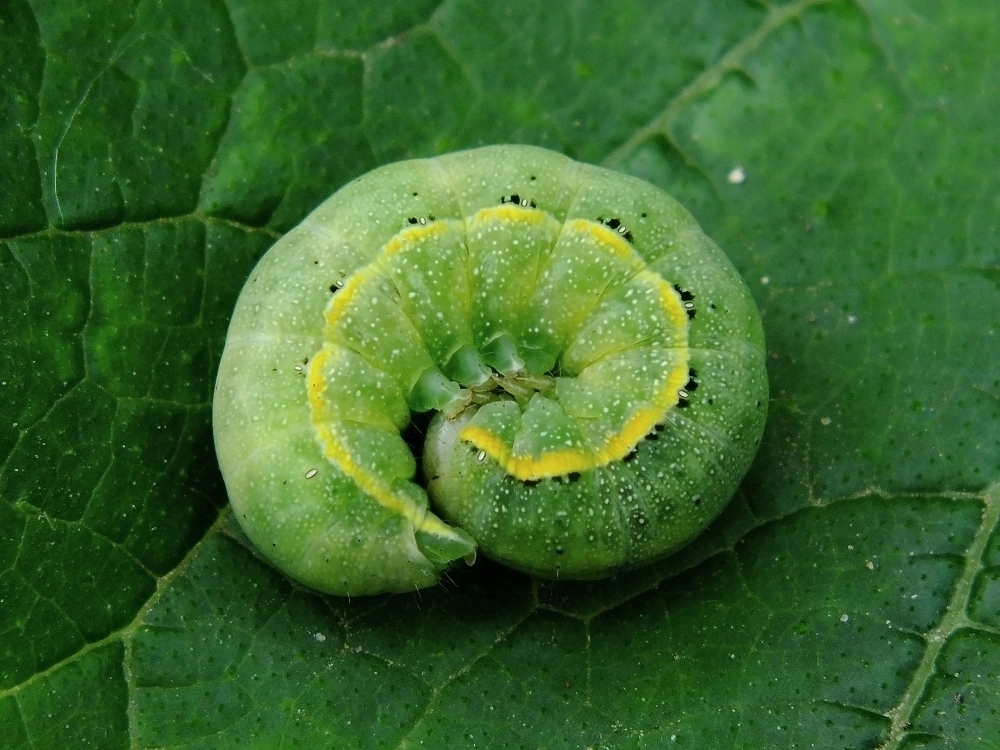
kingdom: Animalia
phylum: Arthropoda
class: Insecta
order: Lepidoptera
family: Noctuidae
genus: Lacanobia
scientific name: Lacanobia oleracea
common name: Bright-line brown-eye
